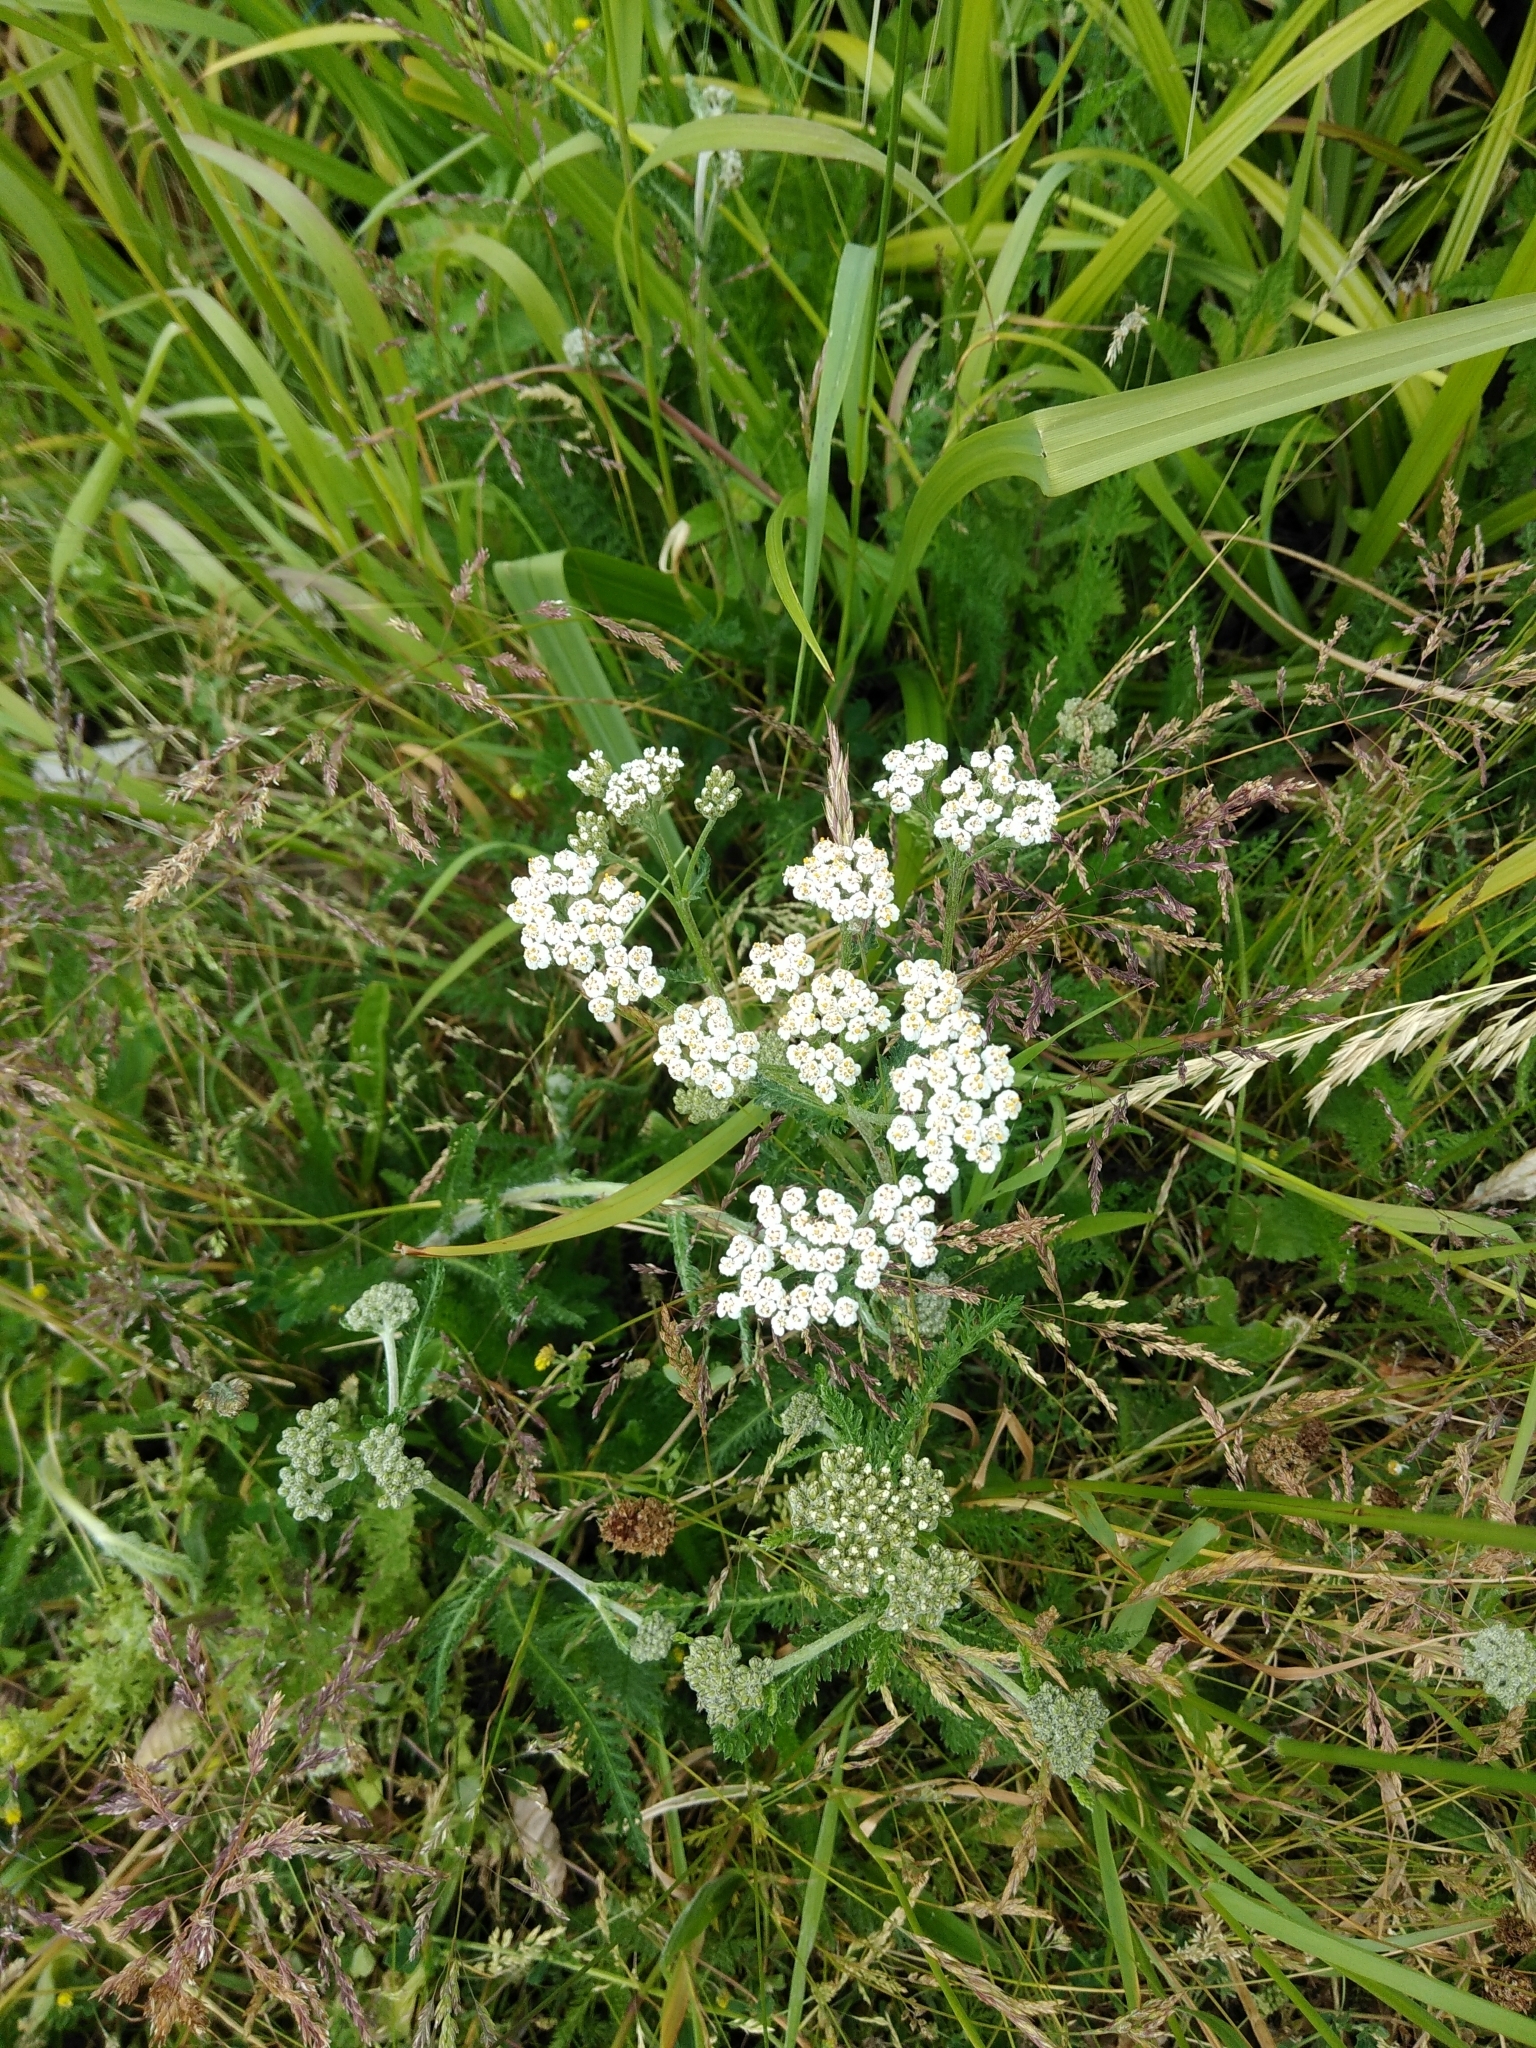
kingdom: Plantae
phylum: Tracheophyta
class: Magnoliopsida
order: Asterales
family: Asteraceae
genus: Achillea
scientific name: Achillea millefolium
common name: Yarrow
